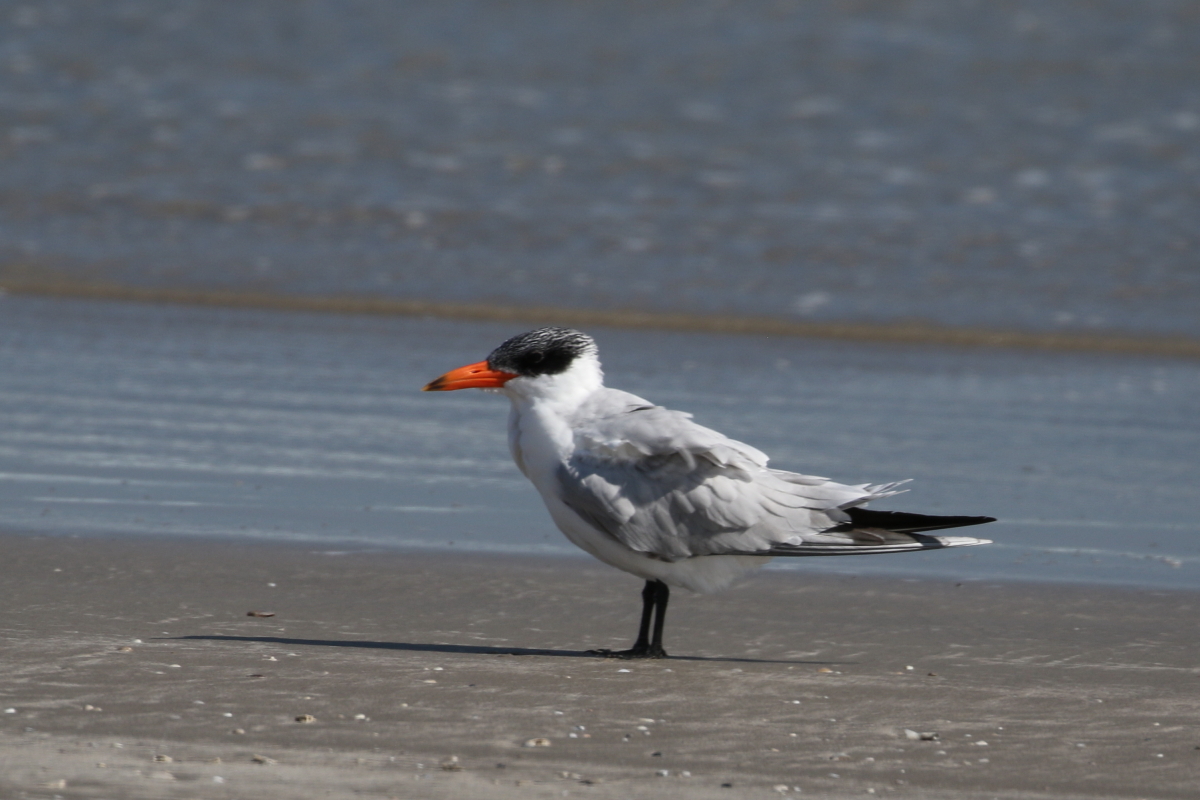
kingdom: Animalia
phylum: Chordata
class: Aves
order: Charadriiformes
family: Laridae
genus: Hydroprogne
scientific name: Hydroprogne caspia
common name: Caspian tern
